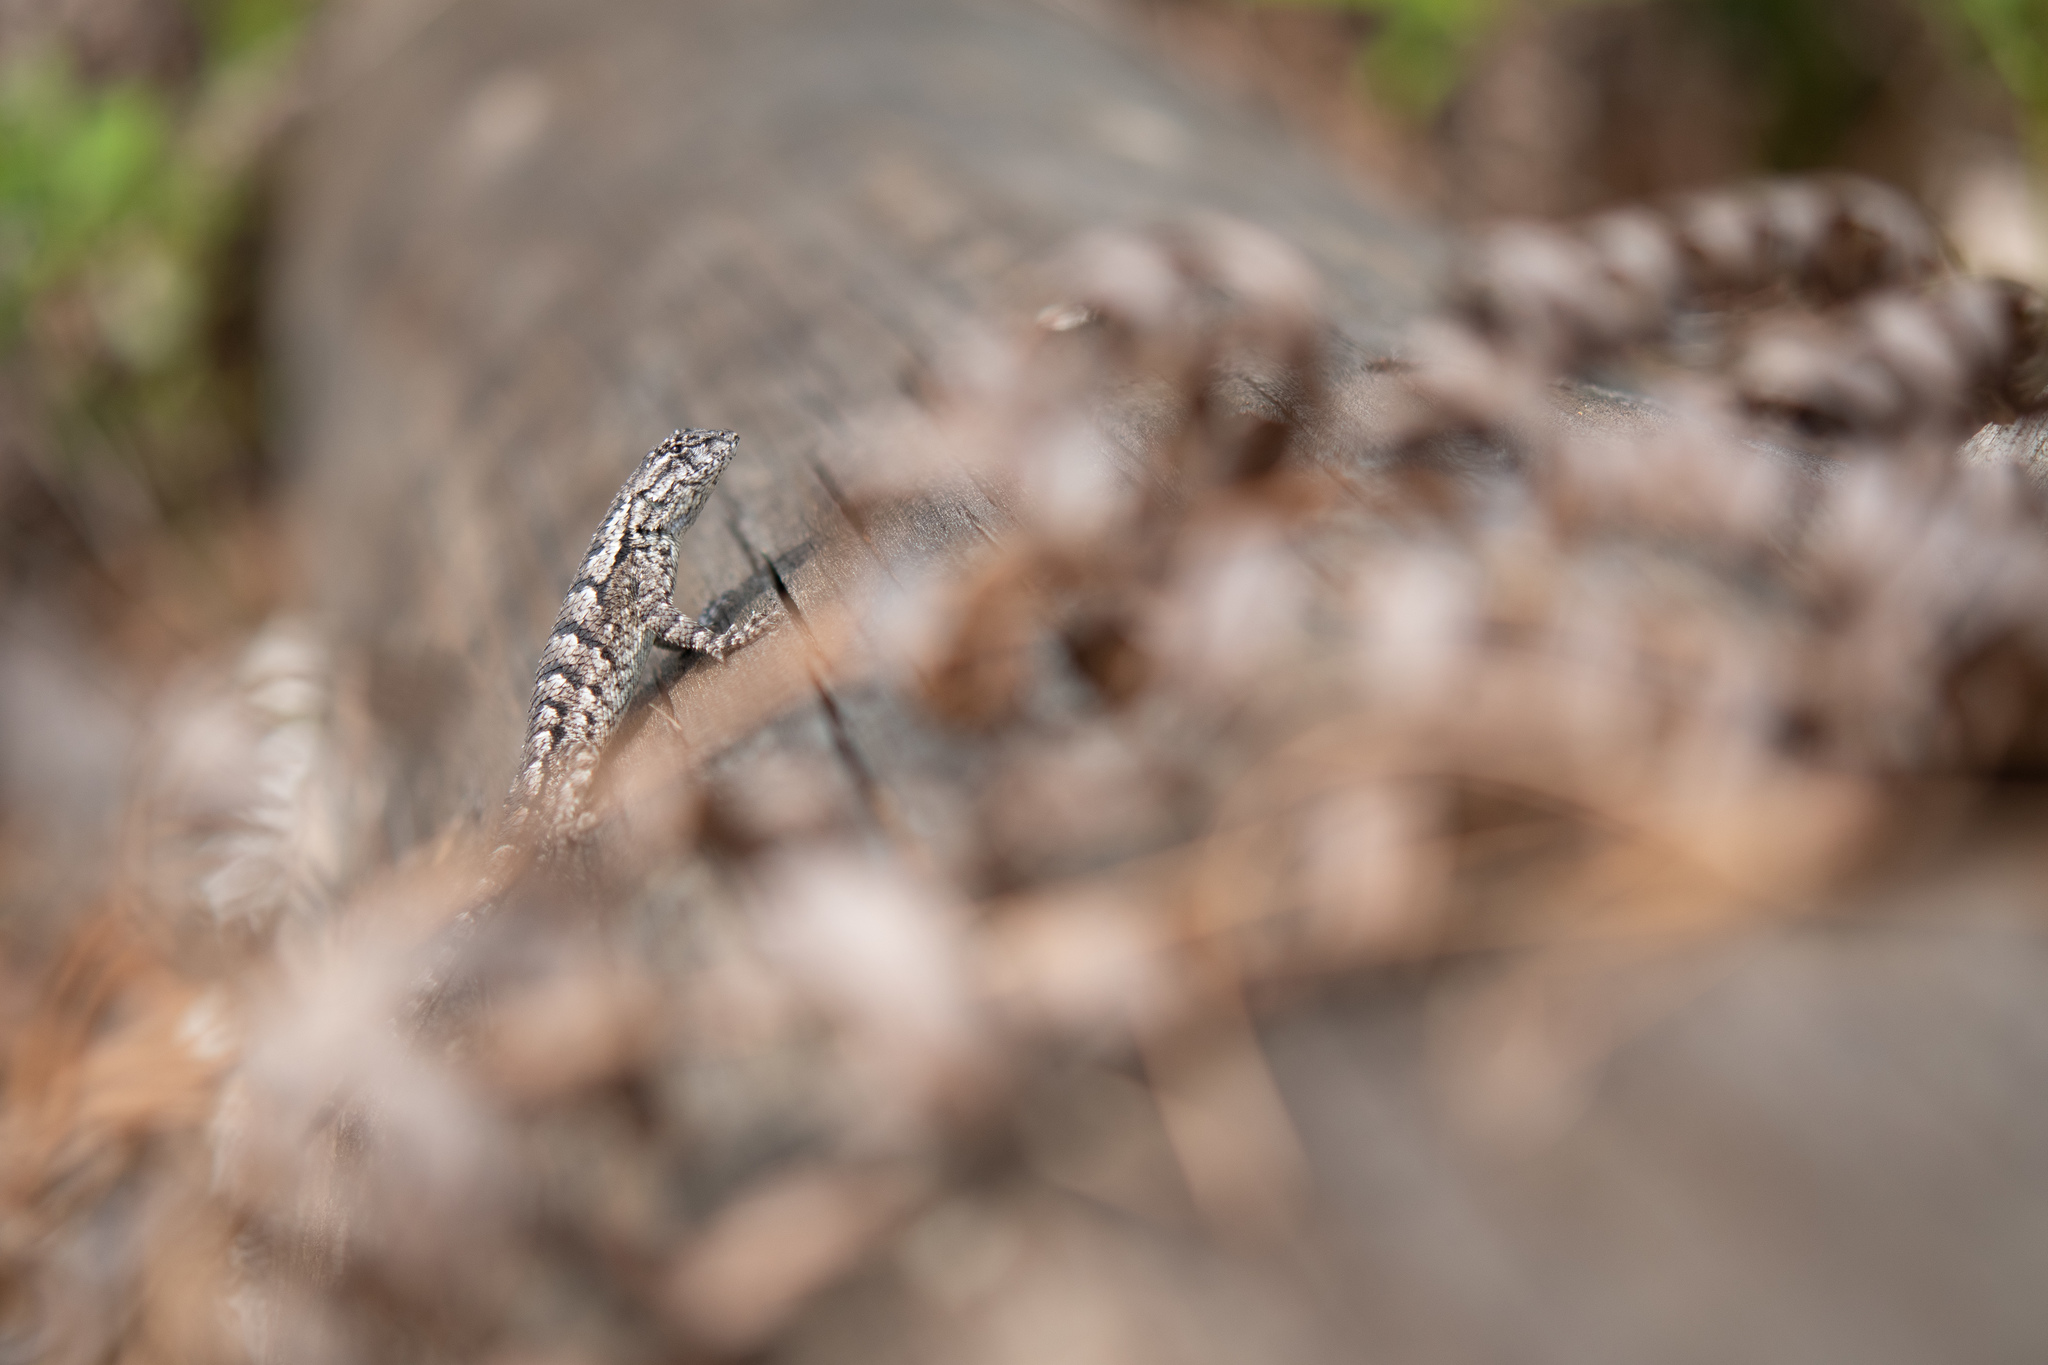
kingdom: Animalia
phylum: Chordata
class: Squamata
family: Phrynosomatidae
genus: Sceloporus
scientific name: Sceloporus undulatus
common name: Eastern fence lizard
